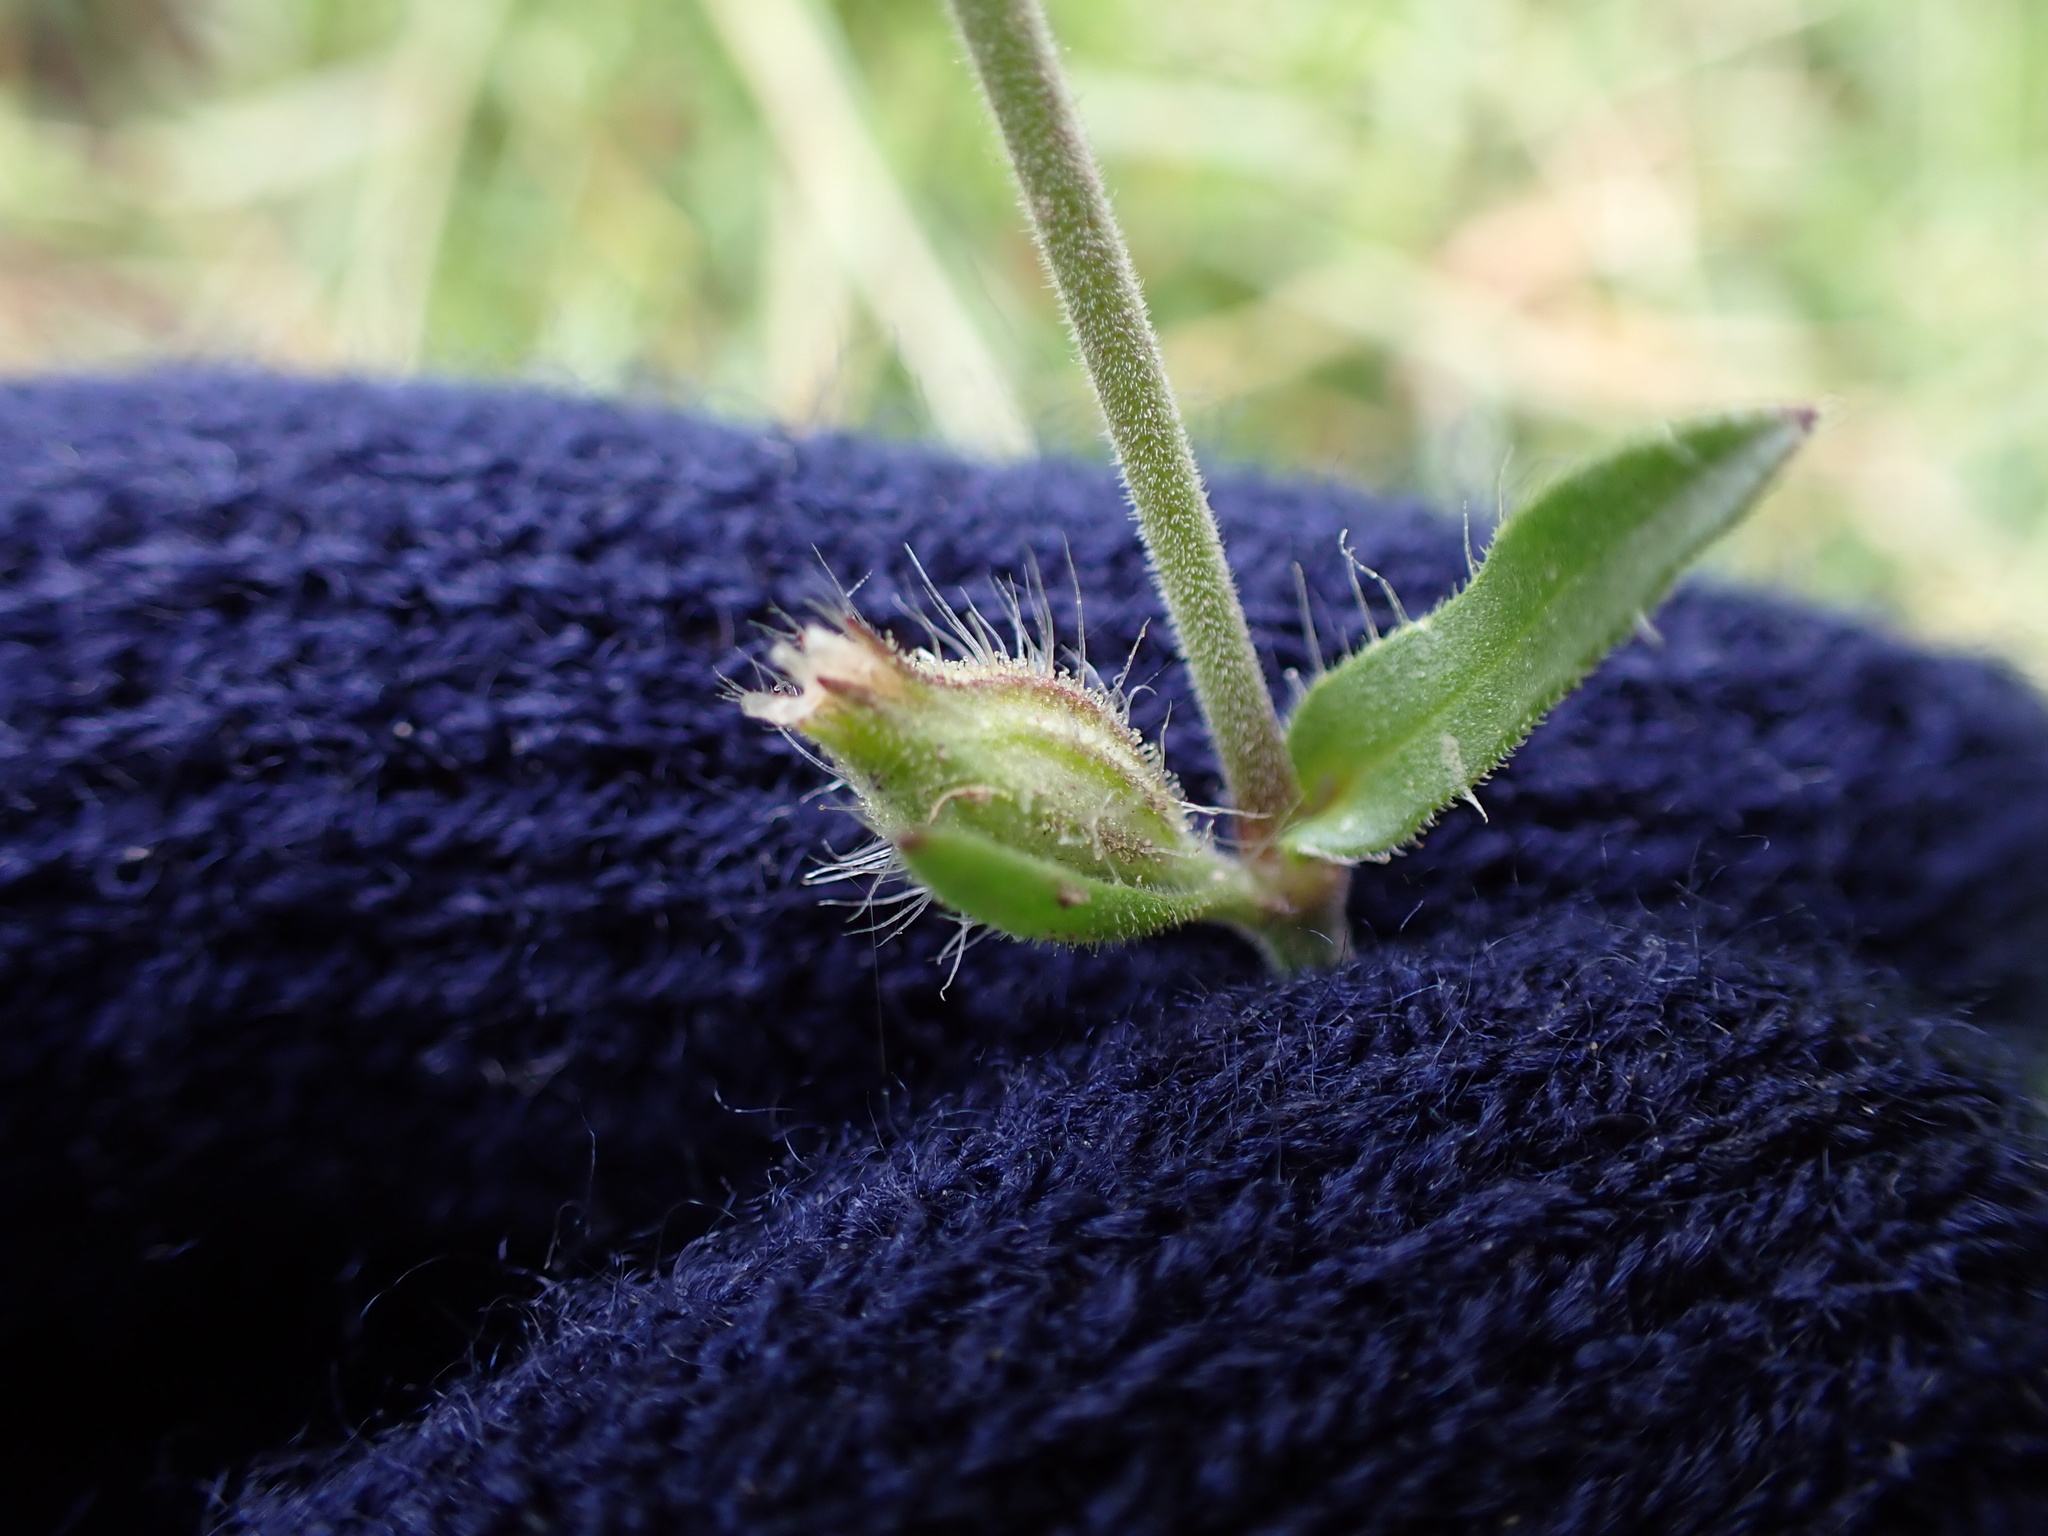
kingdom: Plantae
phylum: Tracheophyta
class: Magnoliopsida
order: Caryophyllales
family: Caryophyllaceae
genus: Silene
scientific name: Silene gallica
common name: Small-flowered catchfly
